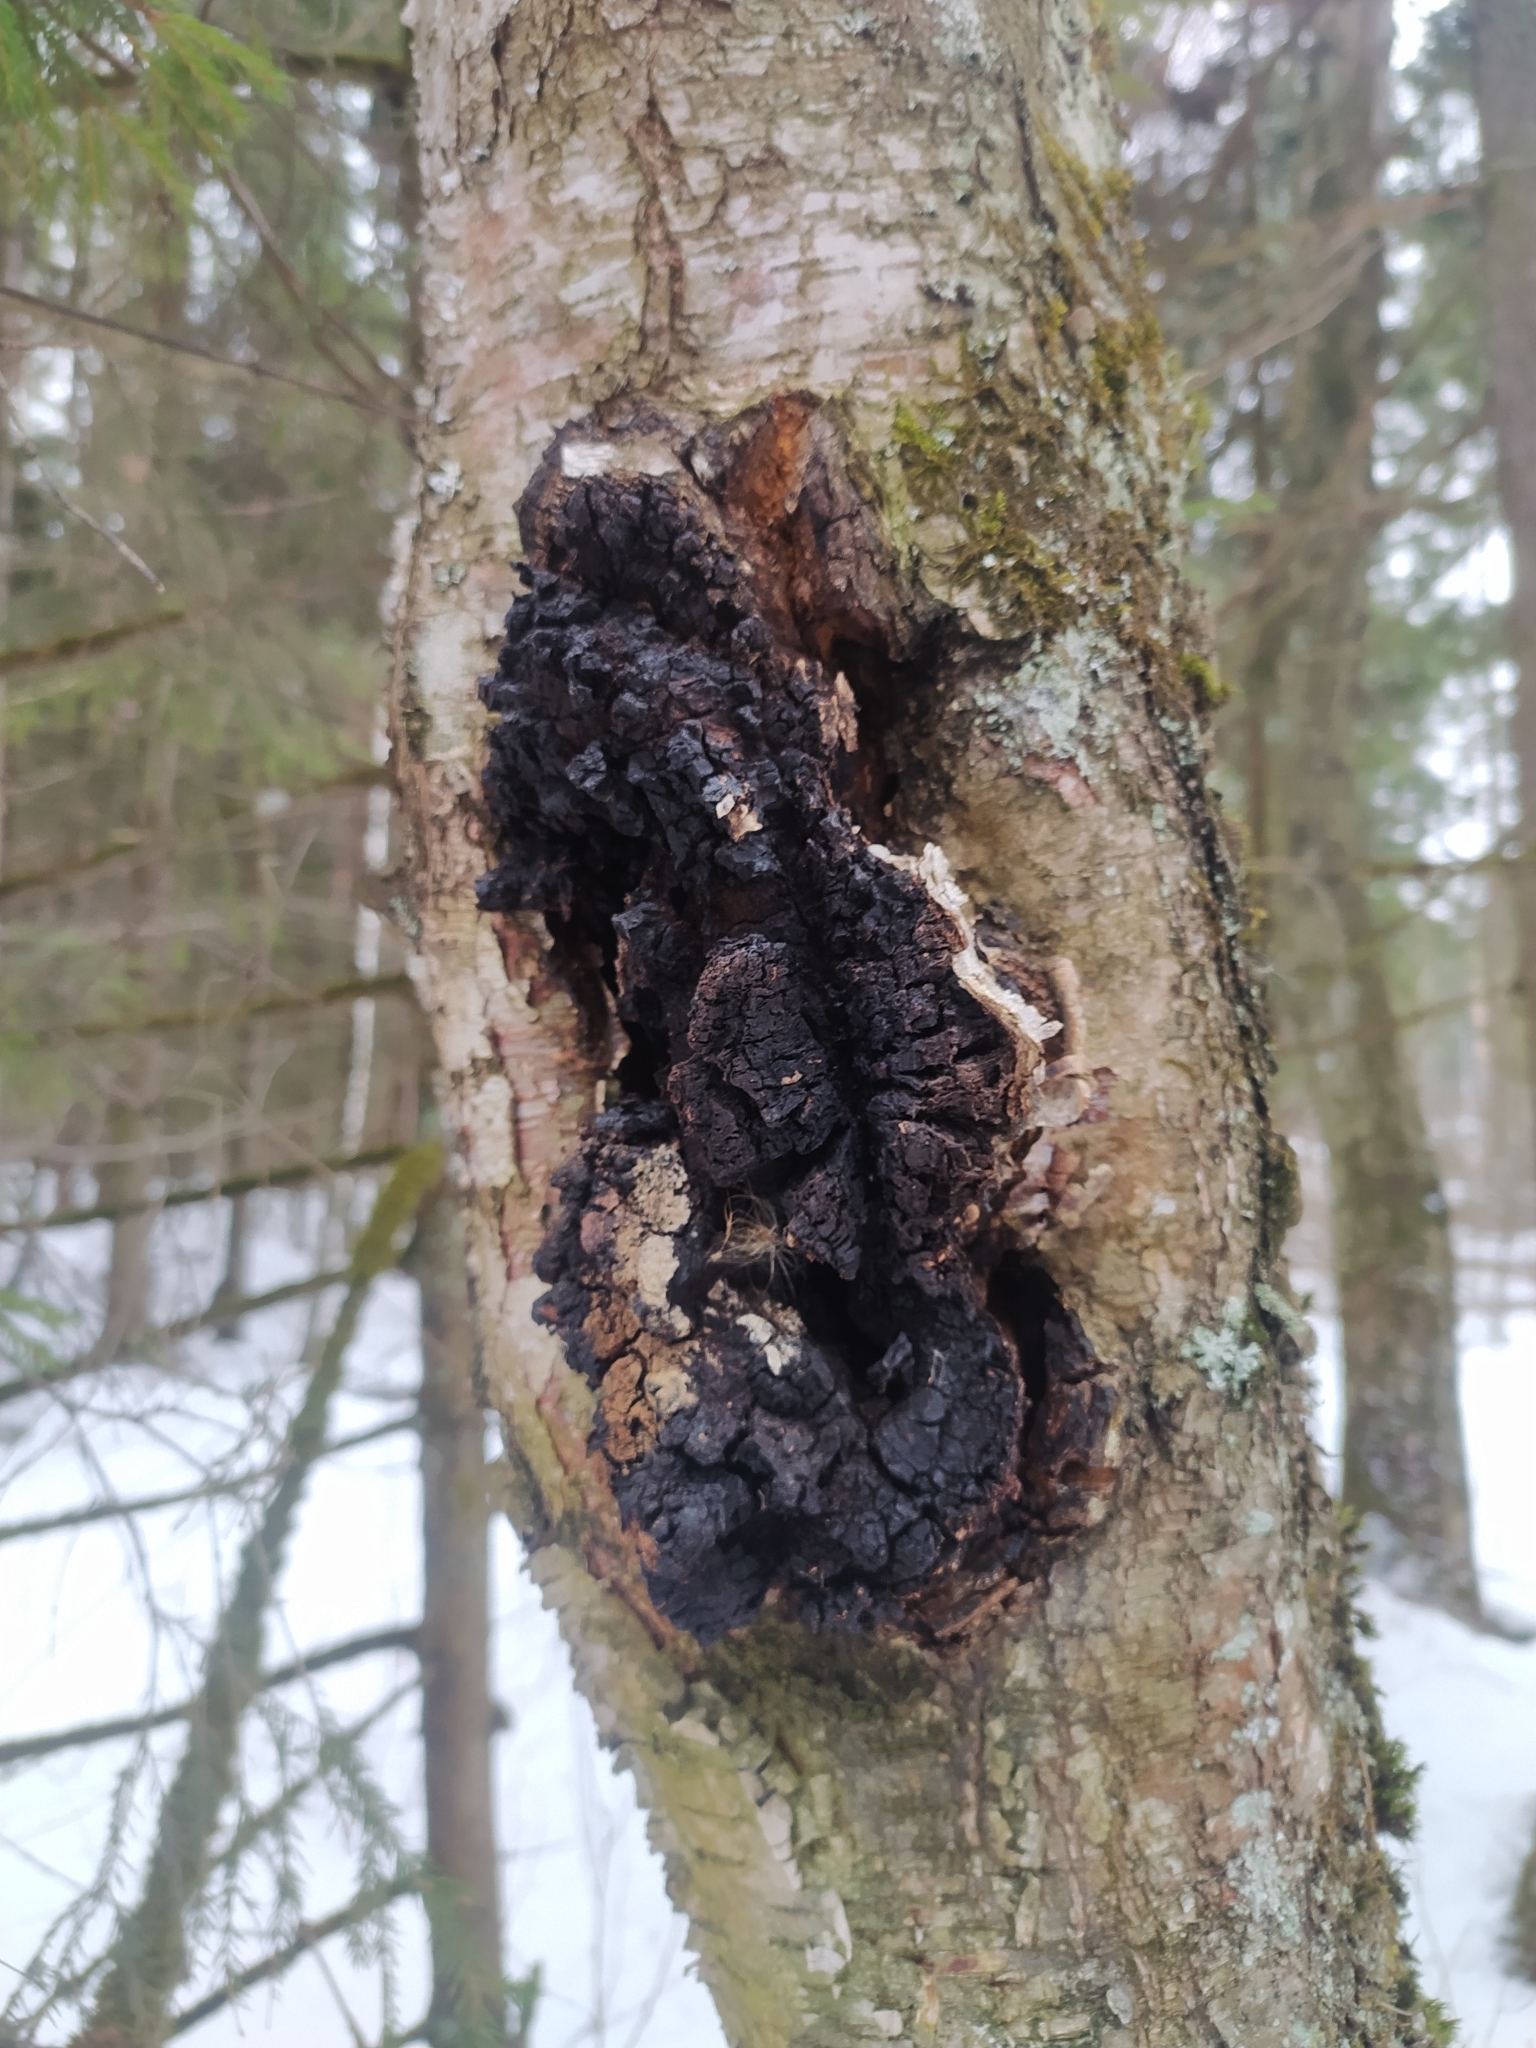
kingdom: Fungi
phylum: Basidiomycota
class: Agaricomycetes
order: Hymenochaetales
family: Hymenochaetaceae
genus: Inonotus
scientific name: Inonotus obliquus
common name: Chaga
